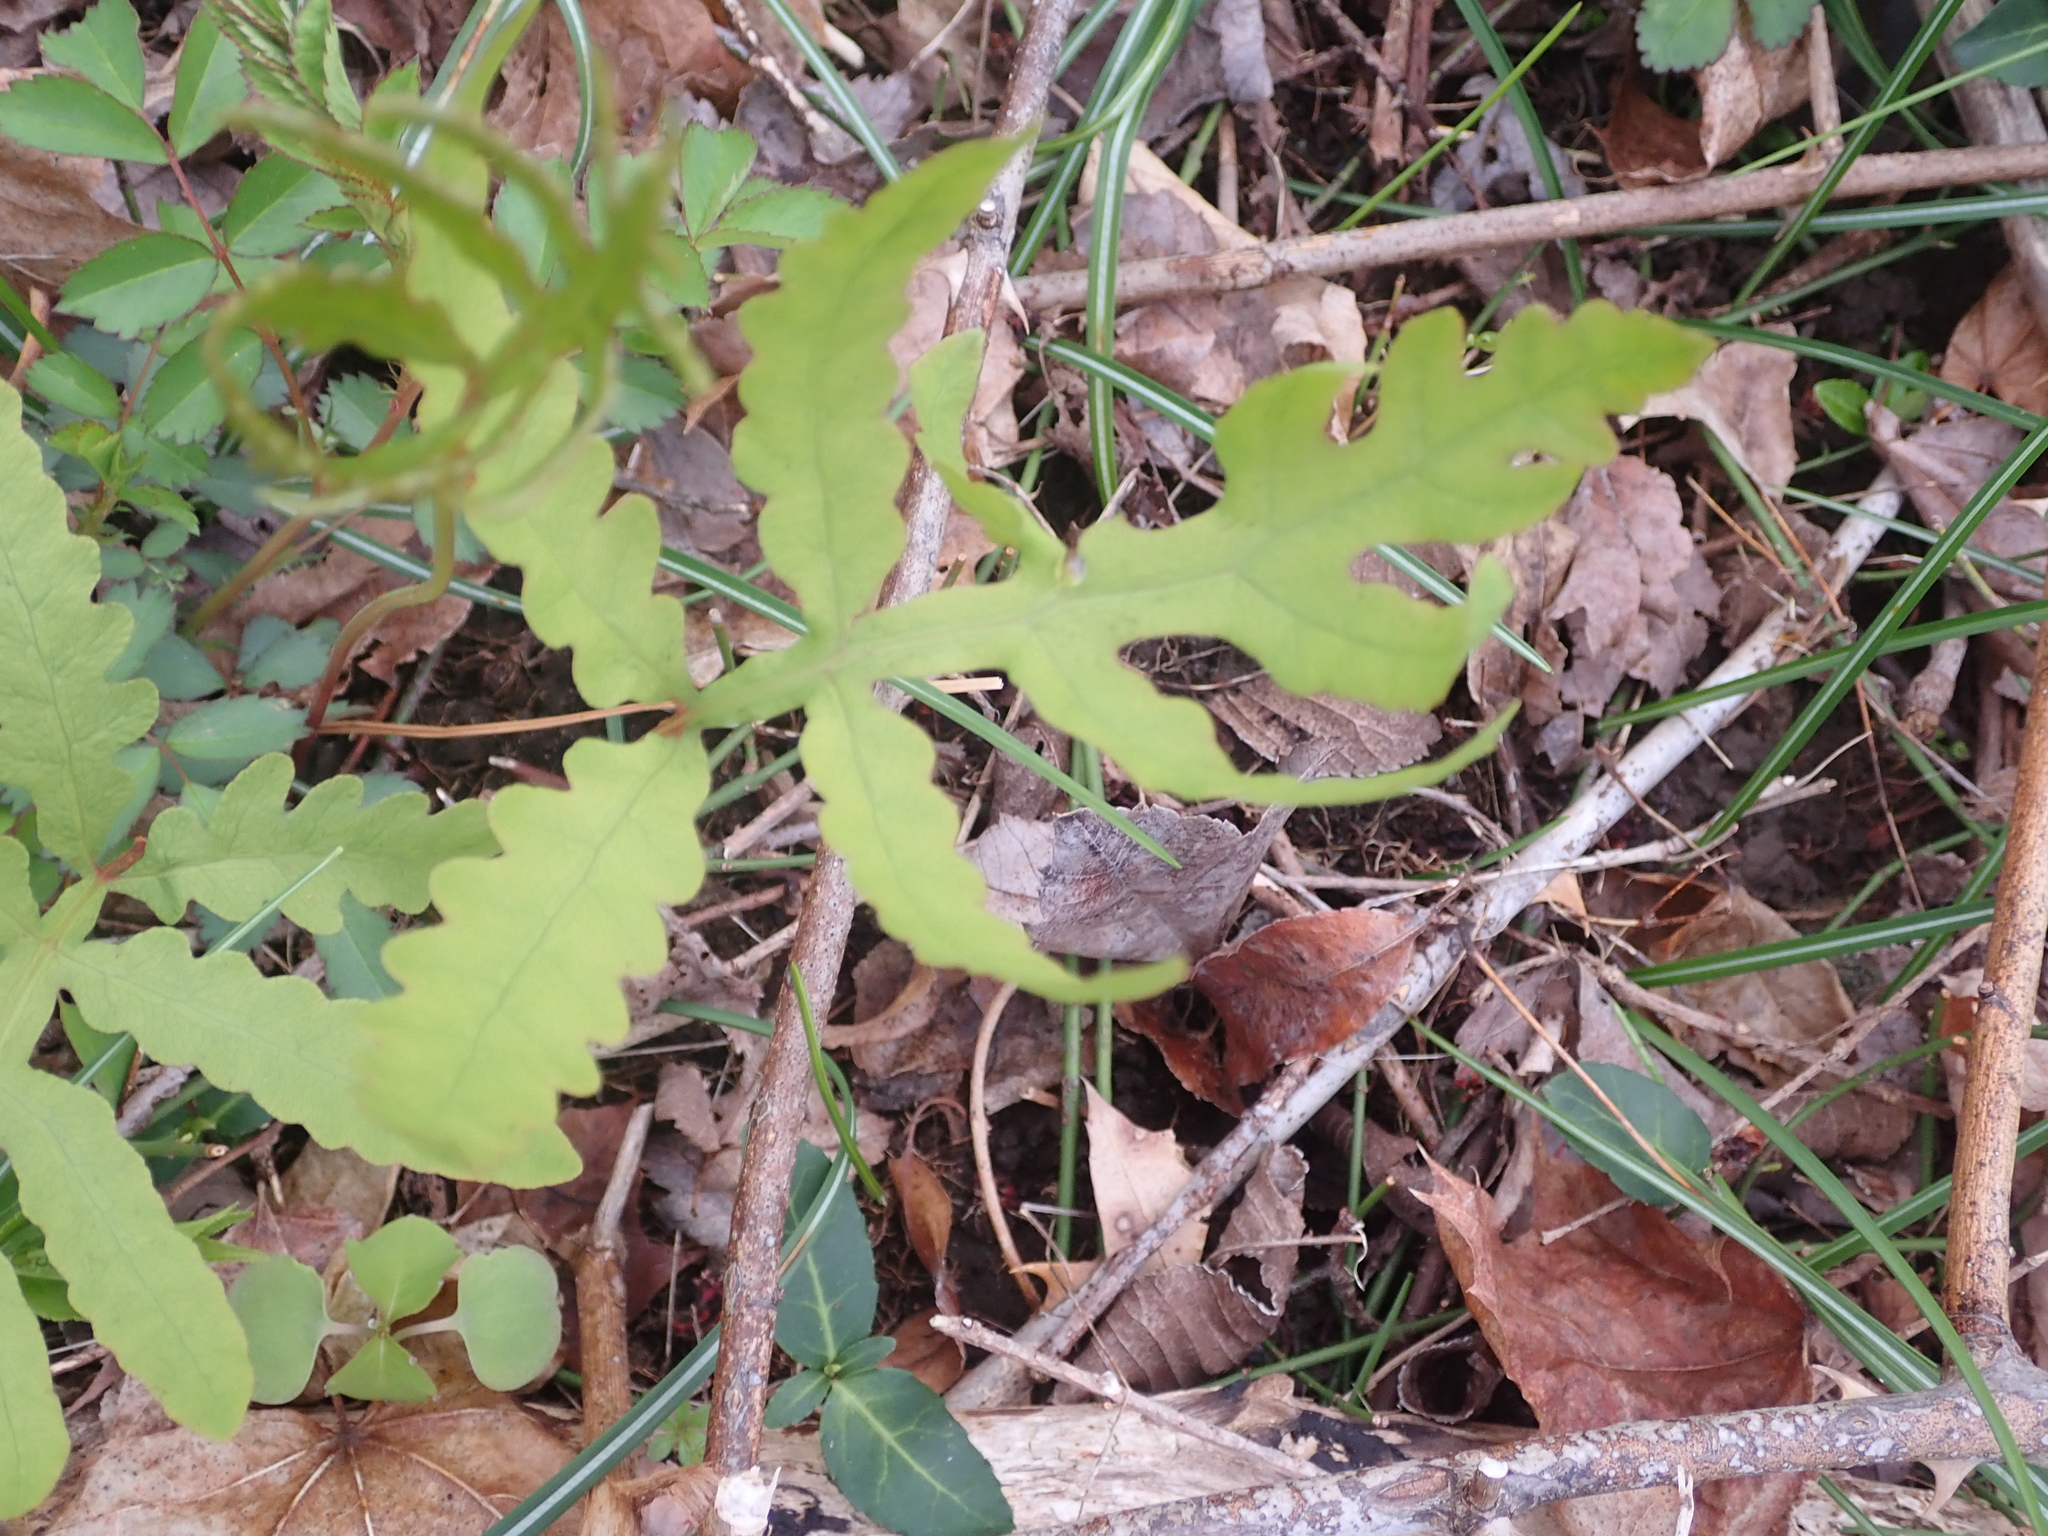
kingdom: Plantae
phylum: Tracheophyta
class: Polypodiopsida
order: Polypodiales
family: Onocleaceae
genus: Onoclea
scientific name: Onoclea sensibilis
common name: Sensitive fern
